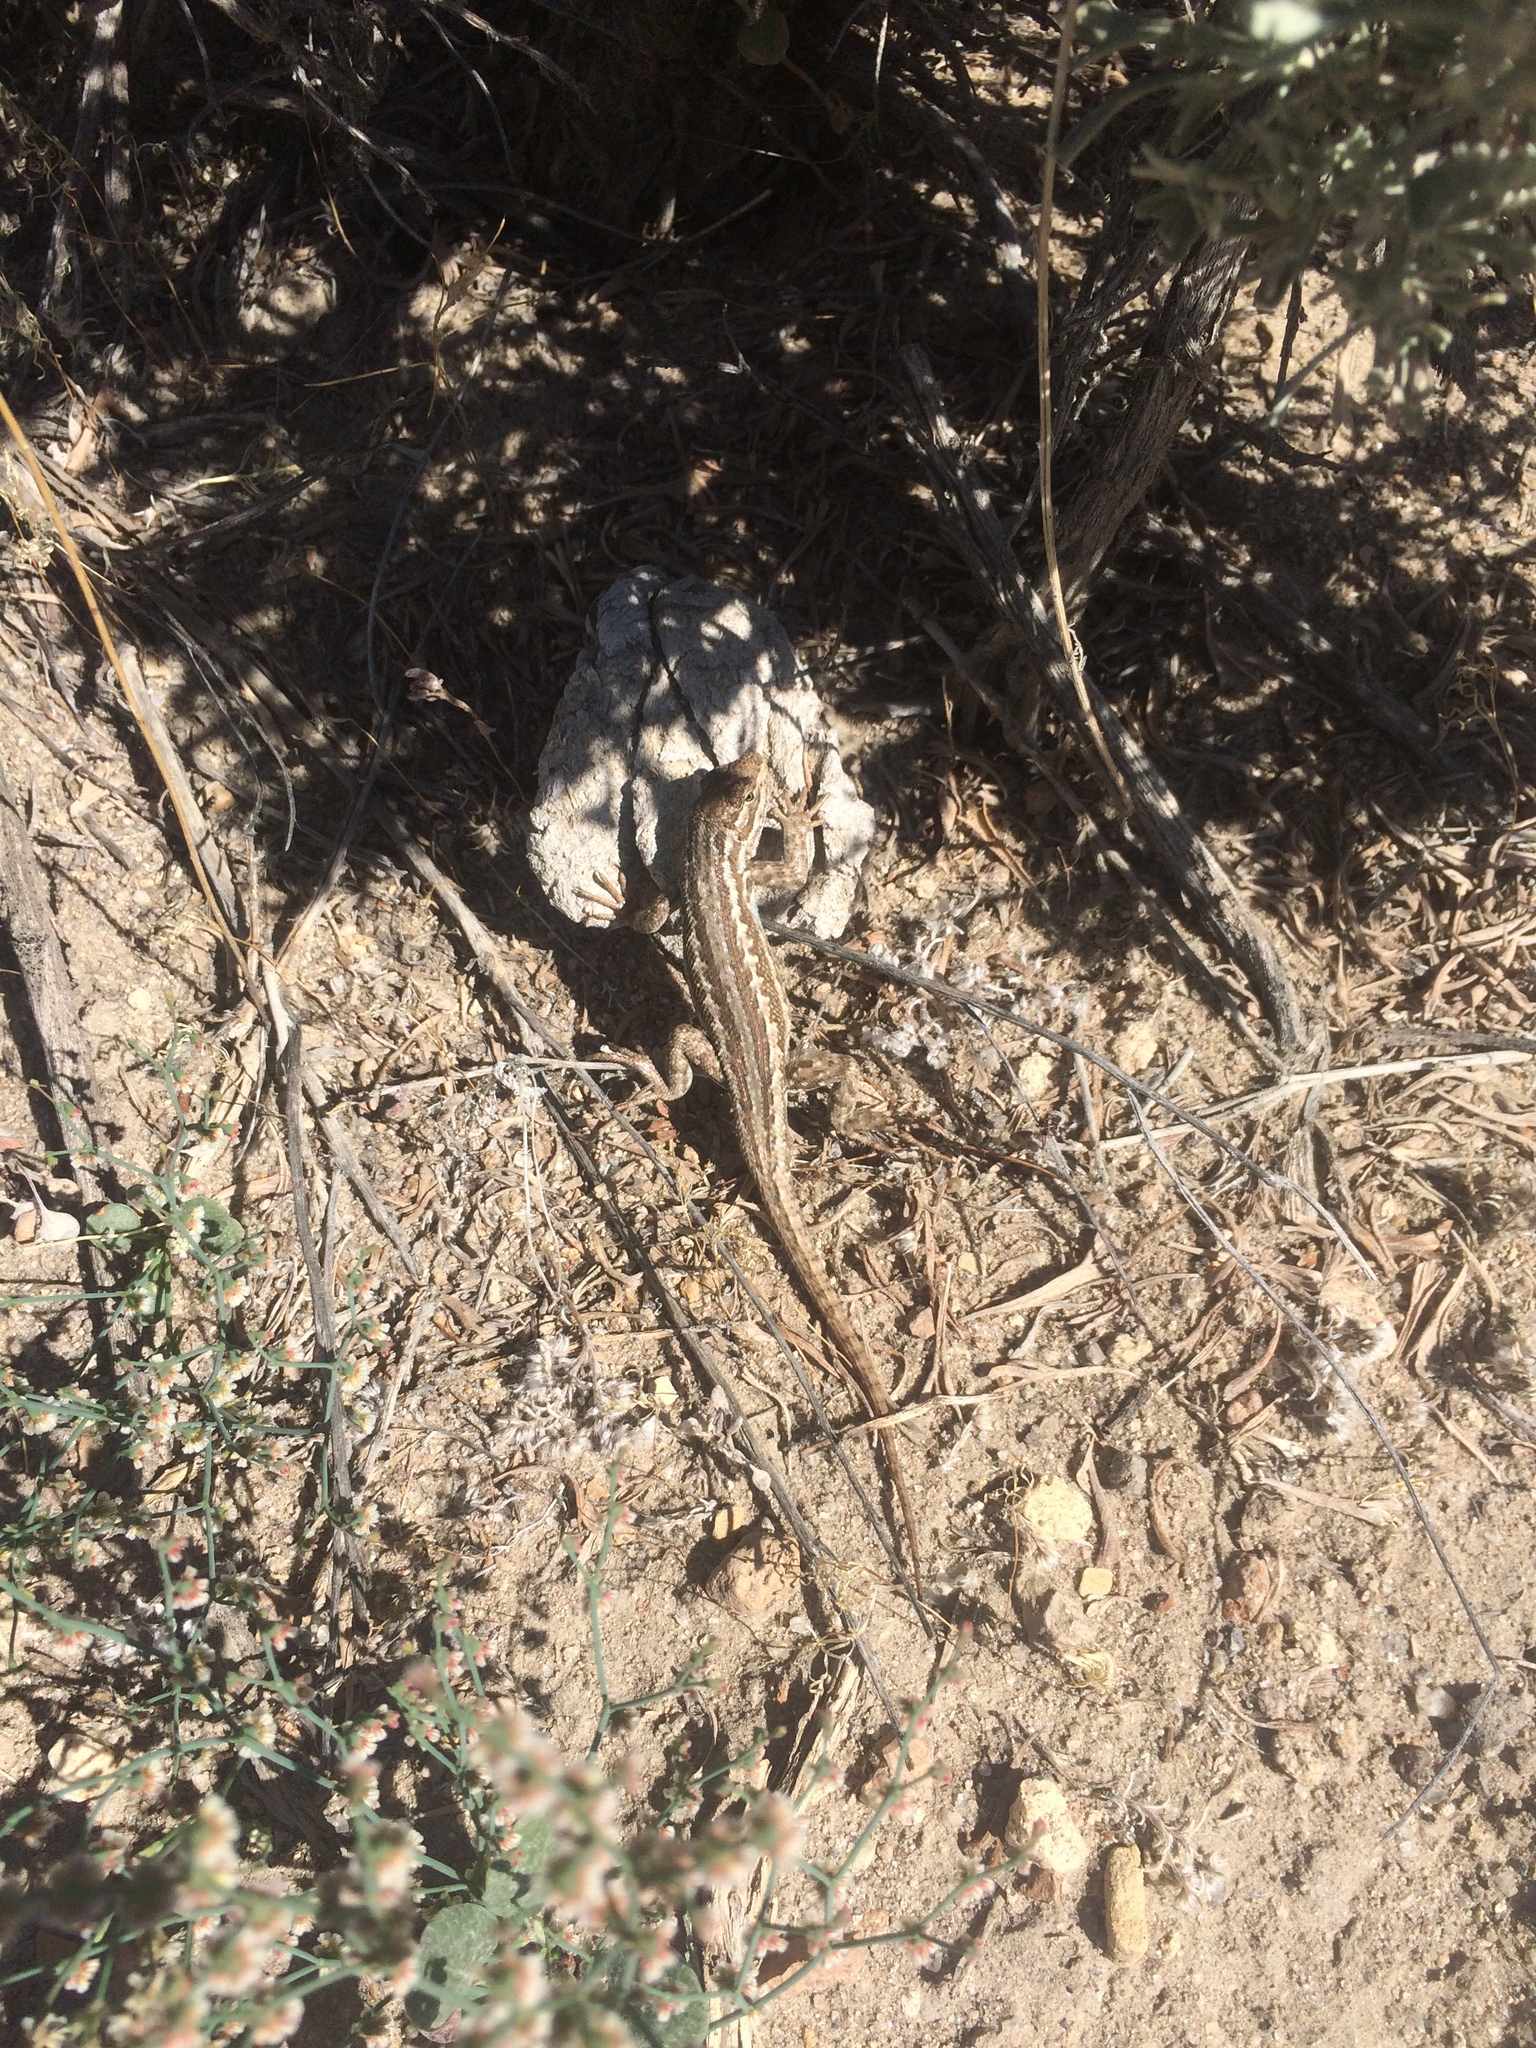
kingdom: Animalia
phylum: Chordata
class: Squamata
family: Phrynosomatidae
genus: Sceloporus
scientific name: Sceloporus graciosus
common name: Sagebrush lizard
